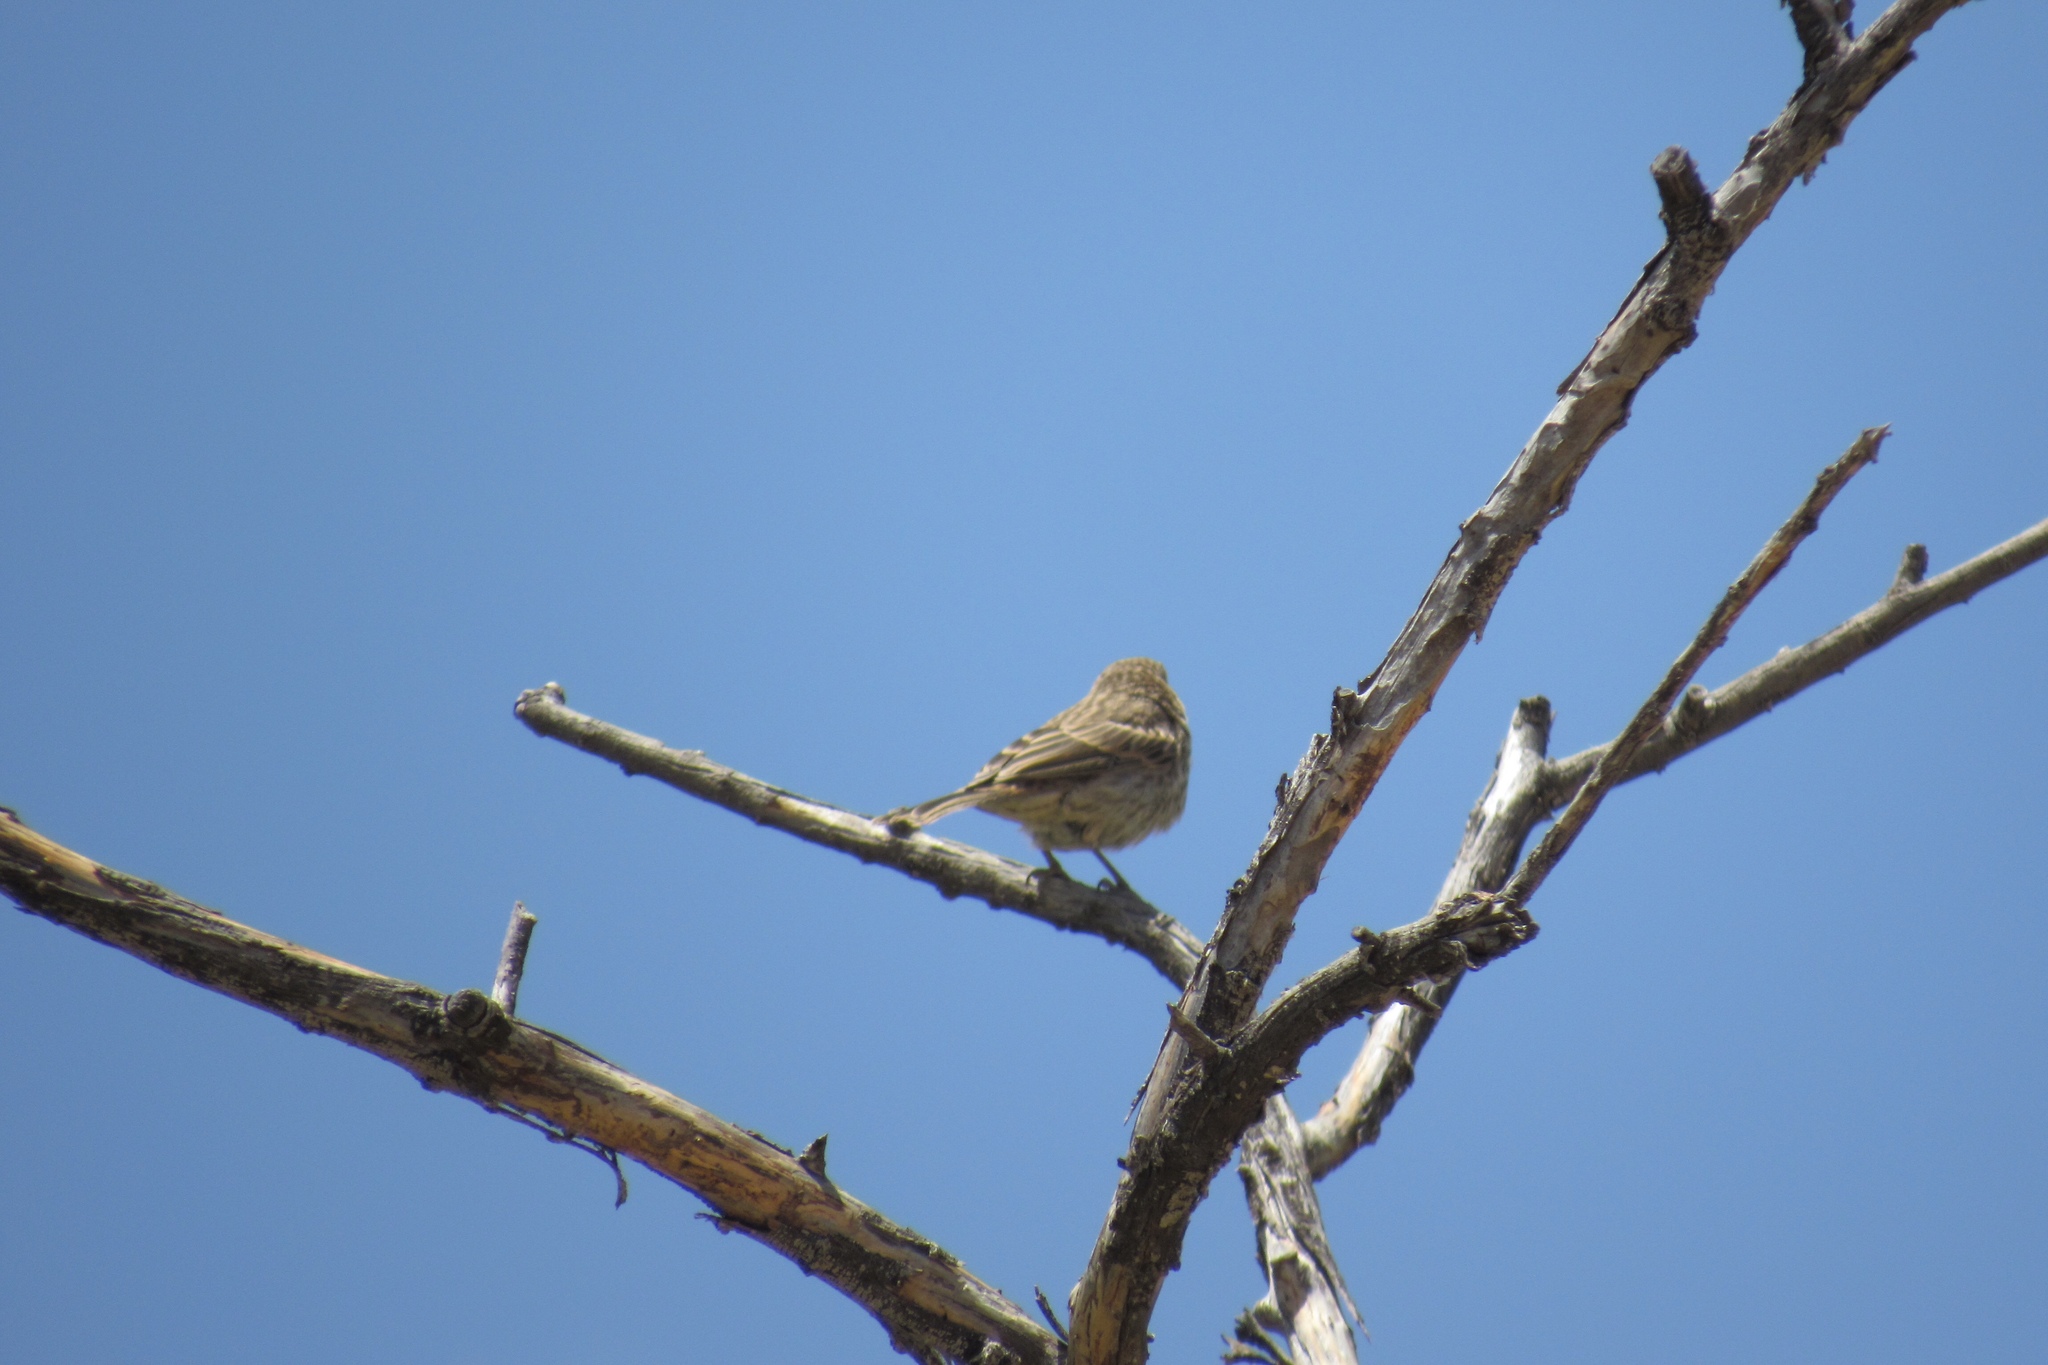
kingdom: Animalia
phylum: Chordata
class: Aves
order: Passeriformes
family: Fringillidae
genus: Haemorhous
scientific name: Haemorhous mexicanus
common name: House finch
